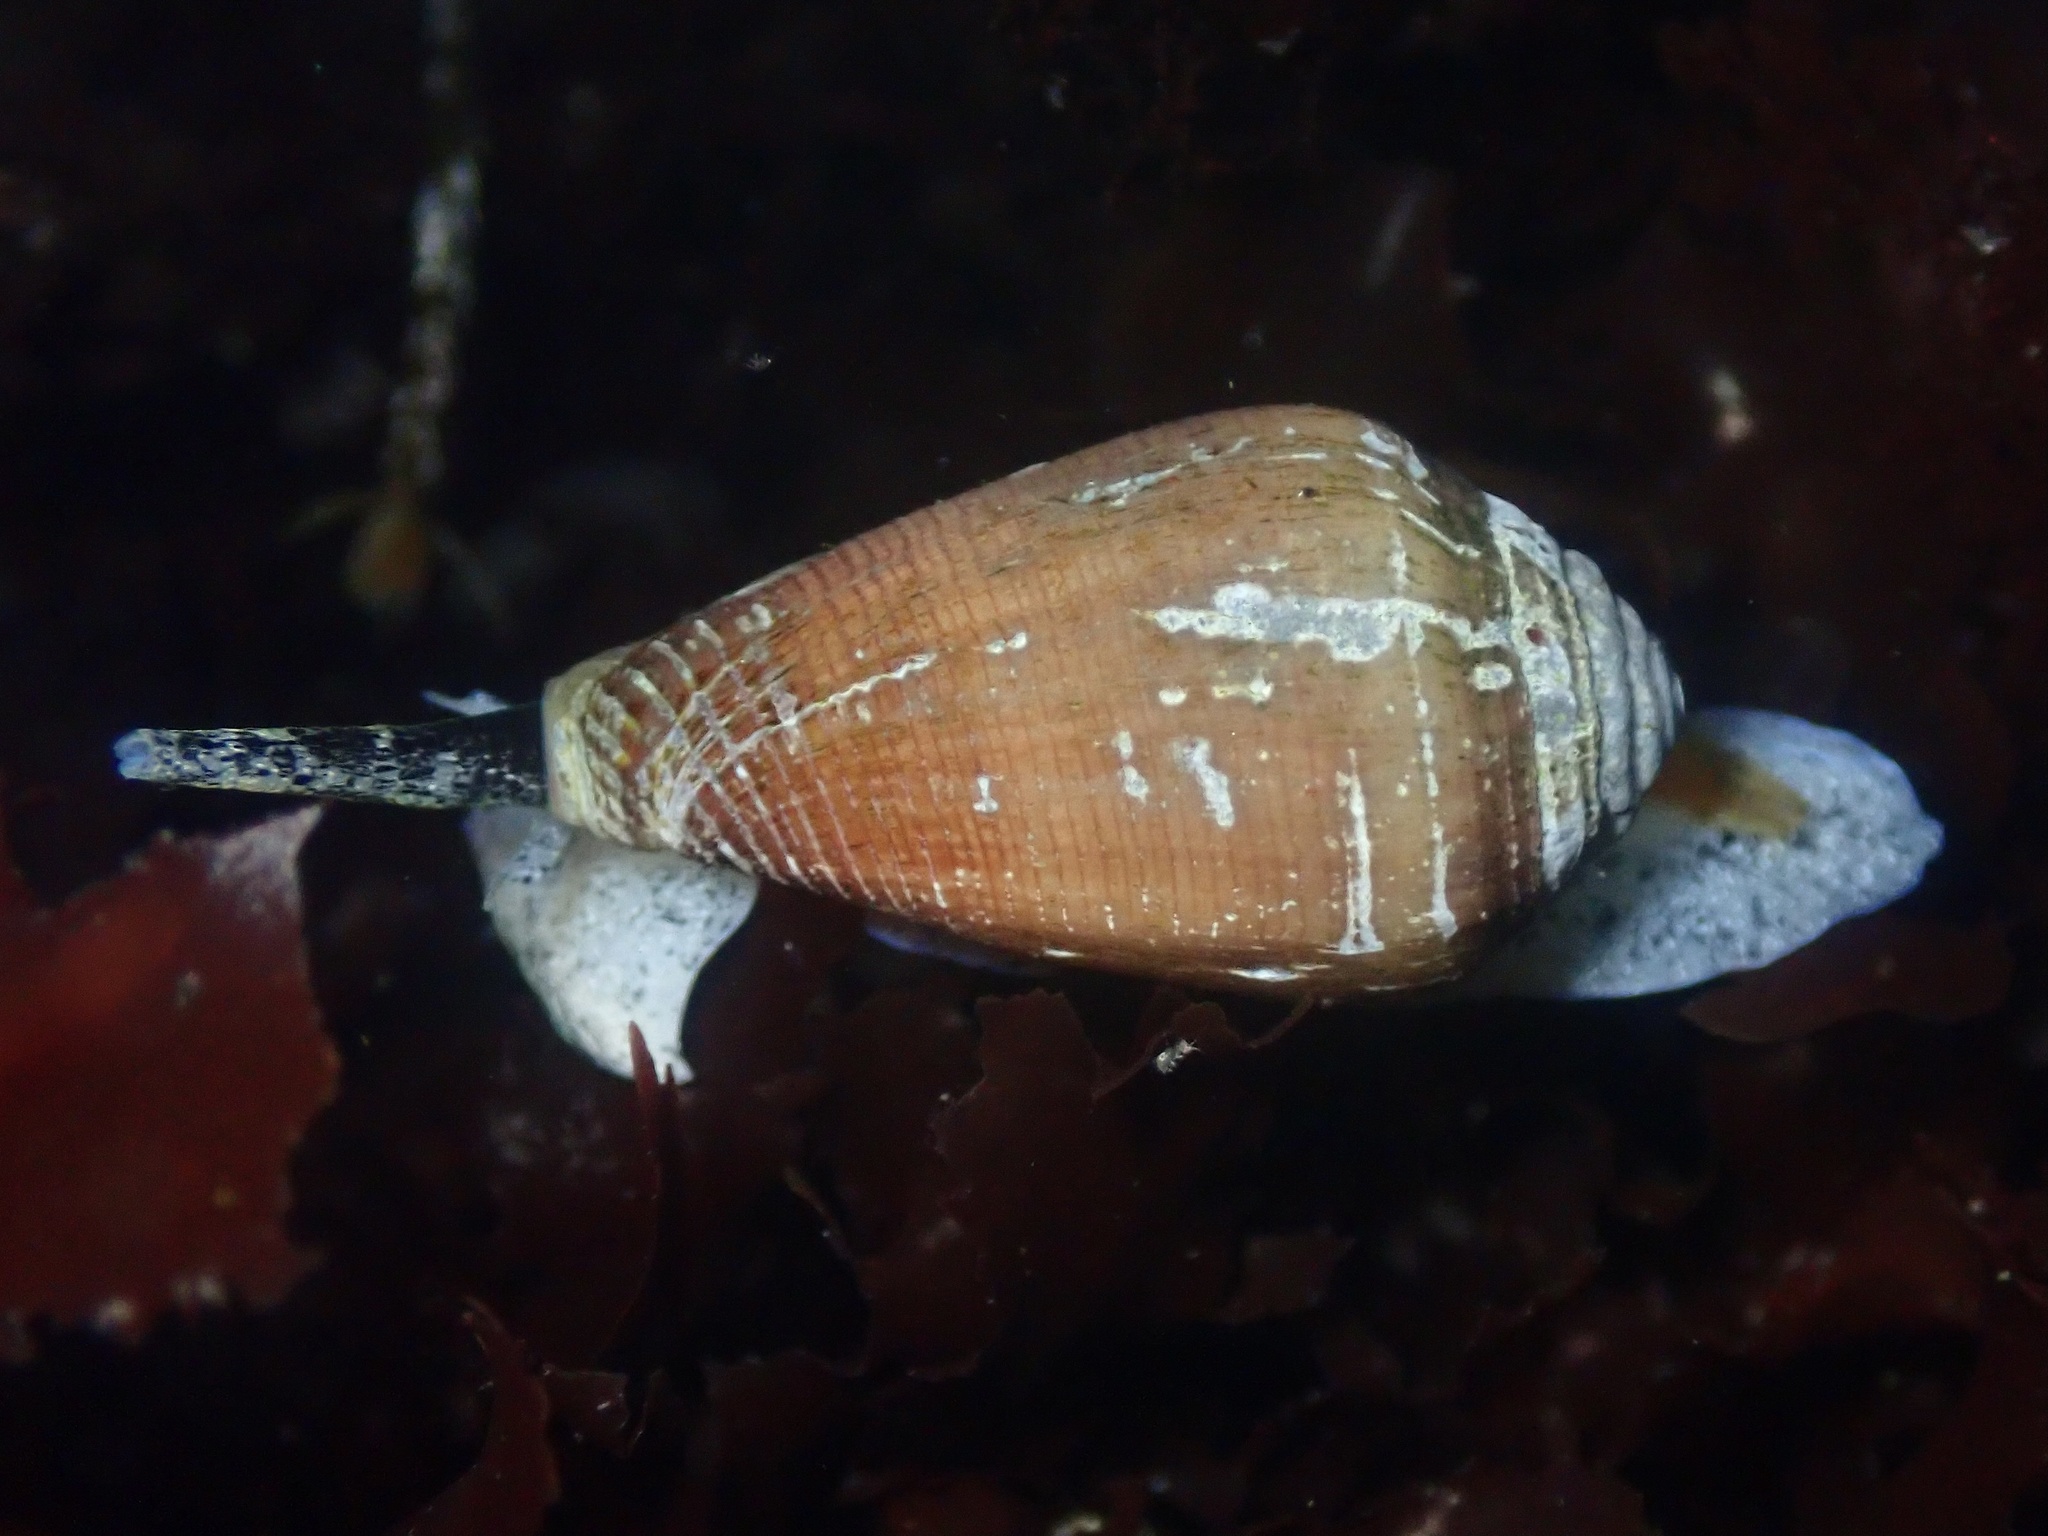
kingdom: Animalia
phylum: Mollusca
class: Gastropoda
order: Neogastropoda
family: Conidae
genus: Californiconus
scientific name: Californiconus californicus
